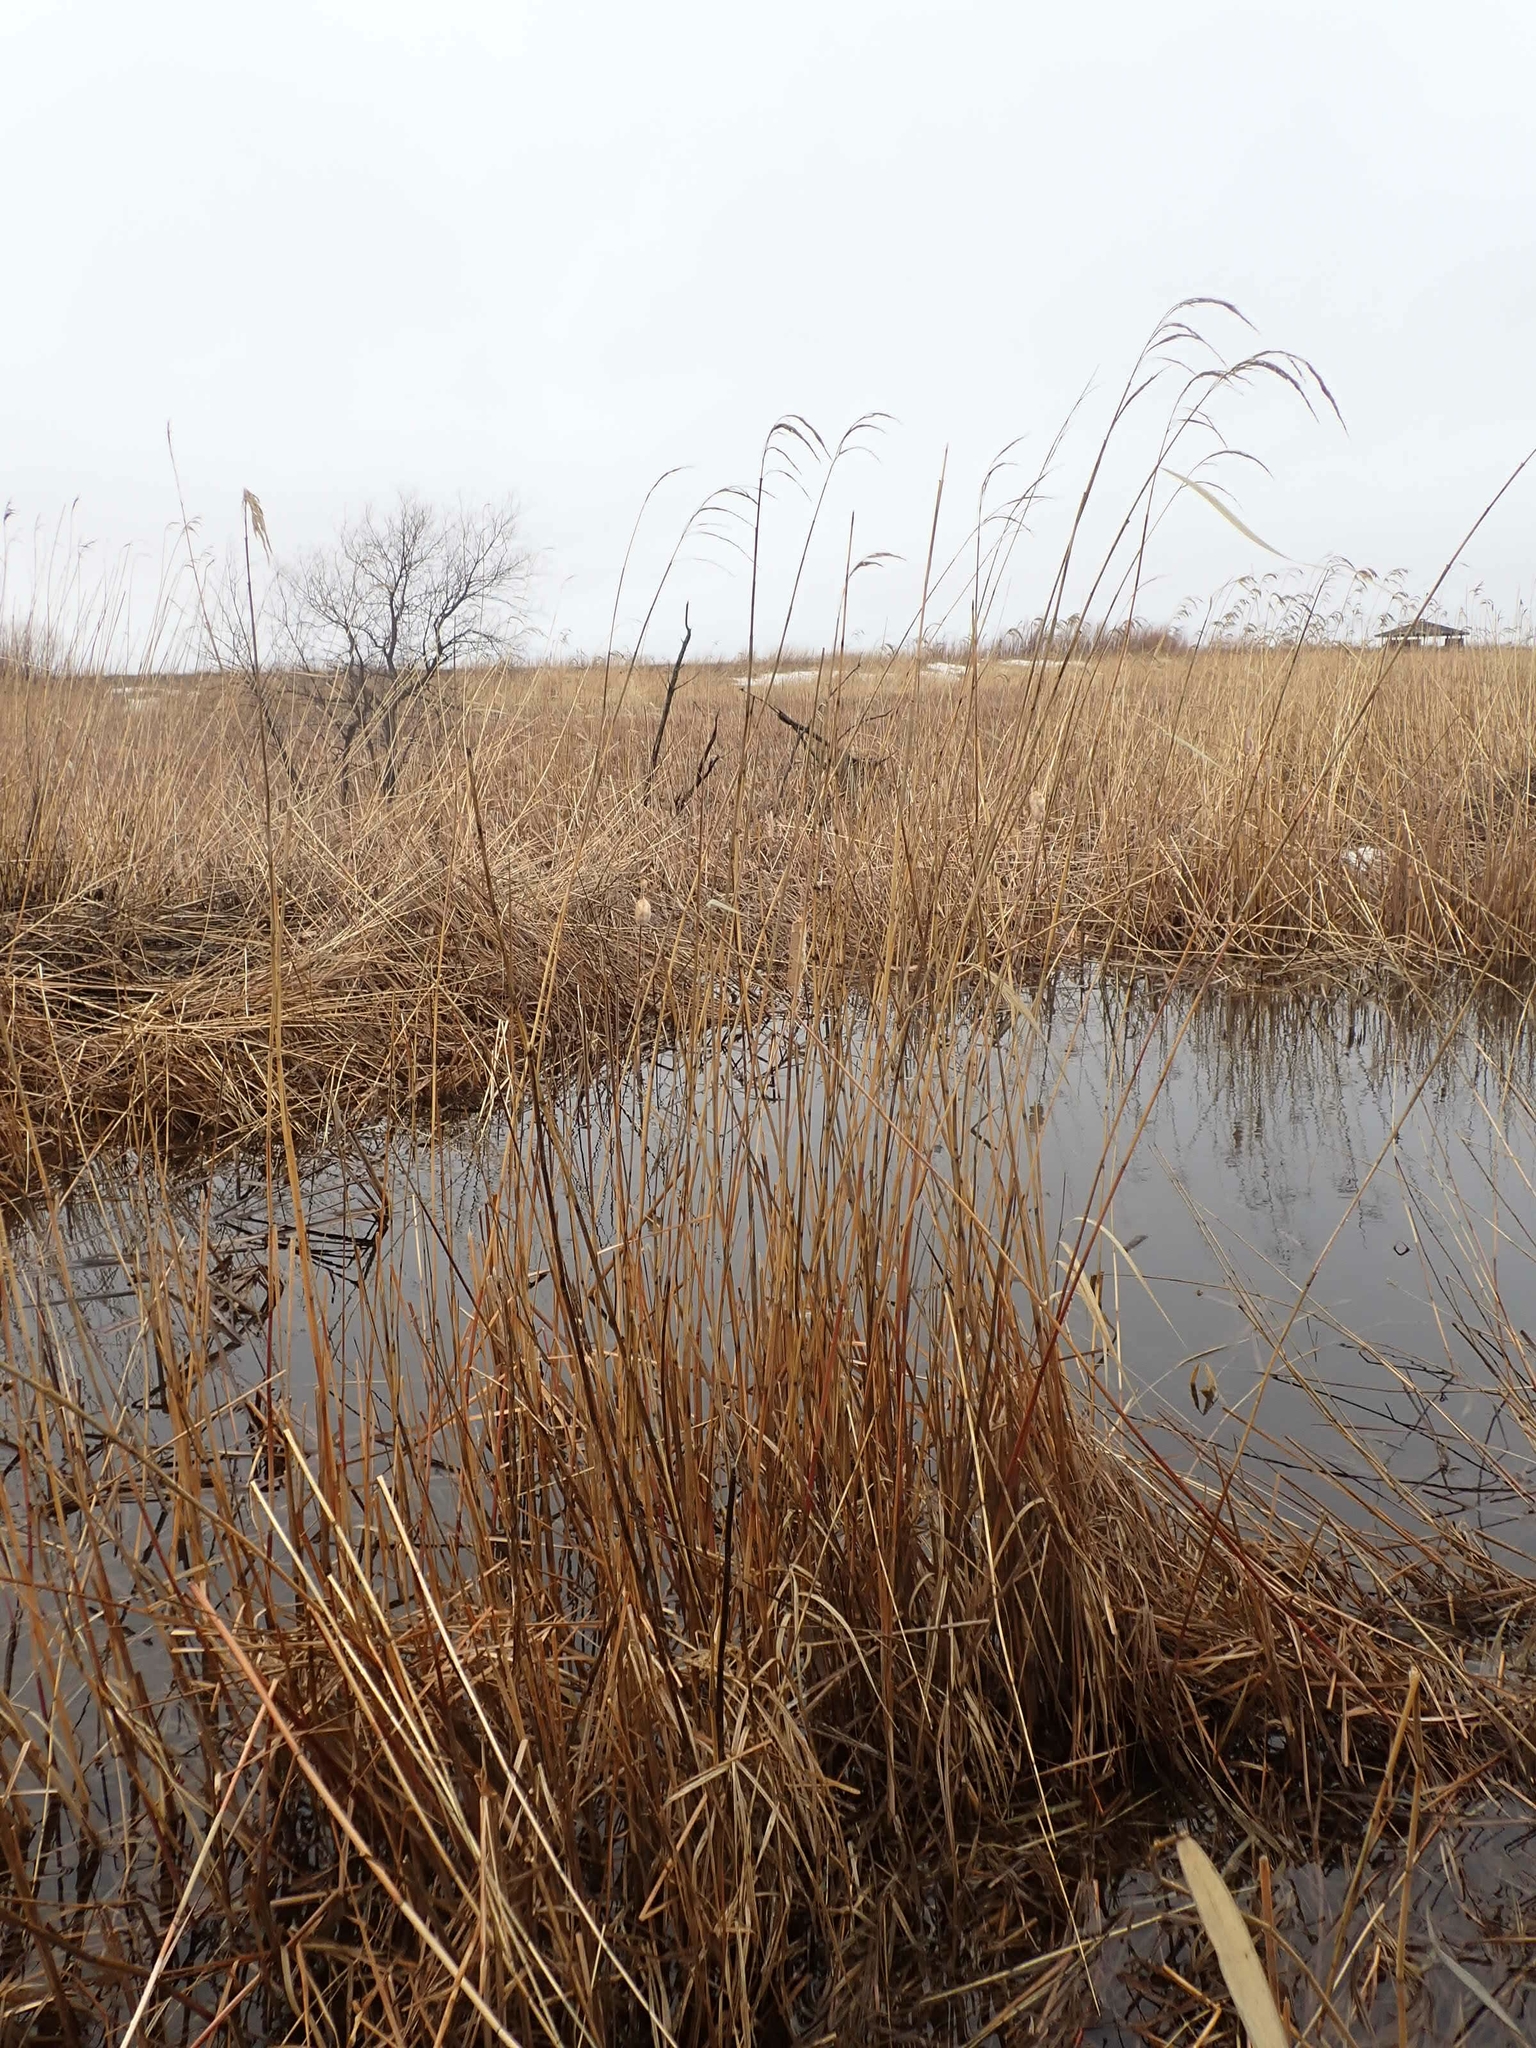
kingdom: Plantae
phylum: Tracheophyta
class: Liliopsida
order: Poales
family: Poaceae
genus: Phragmites
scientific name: Phragmites australis
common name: Common reed
